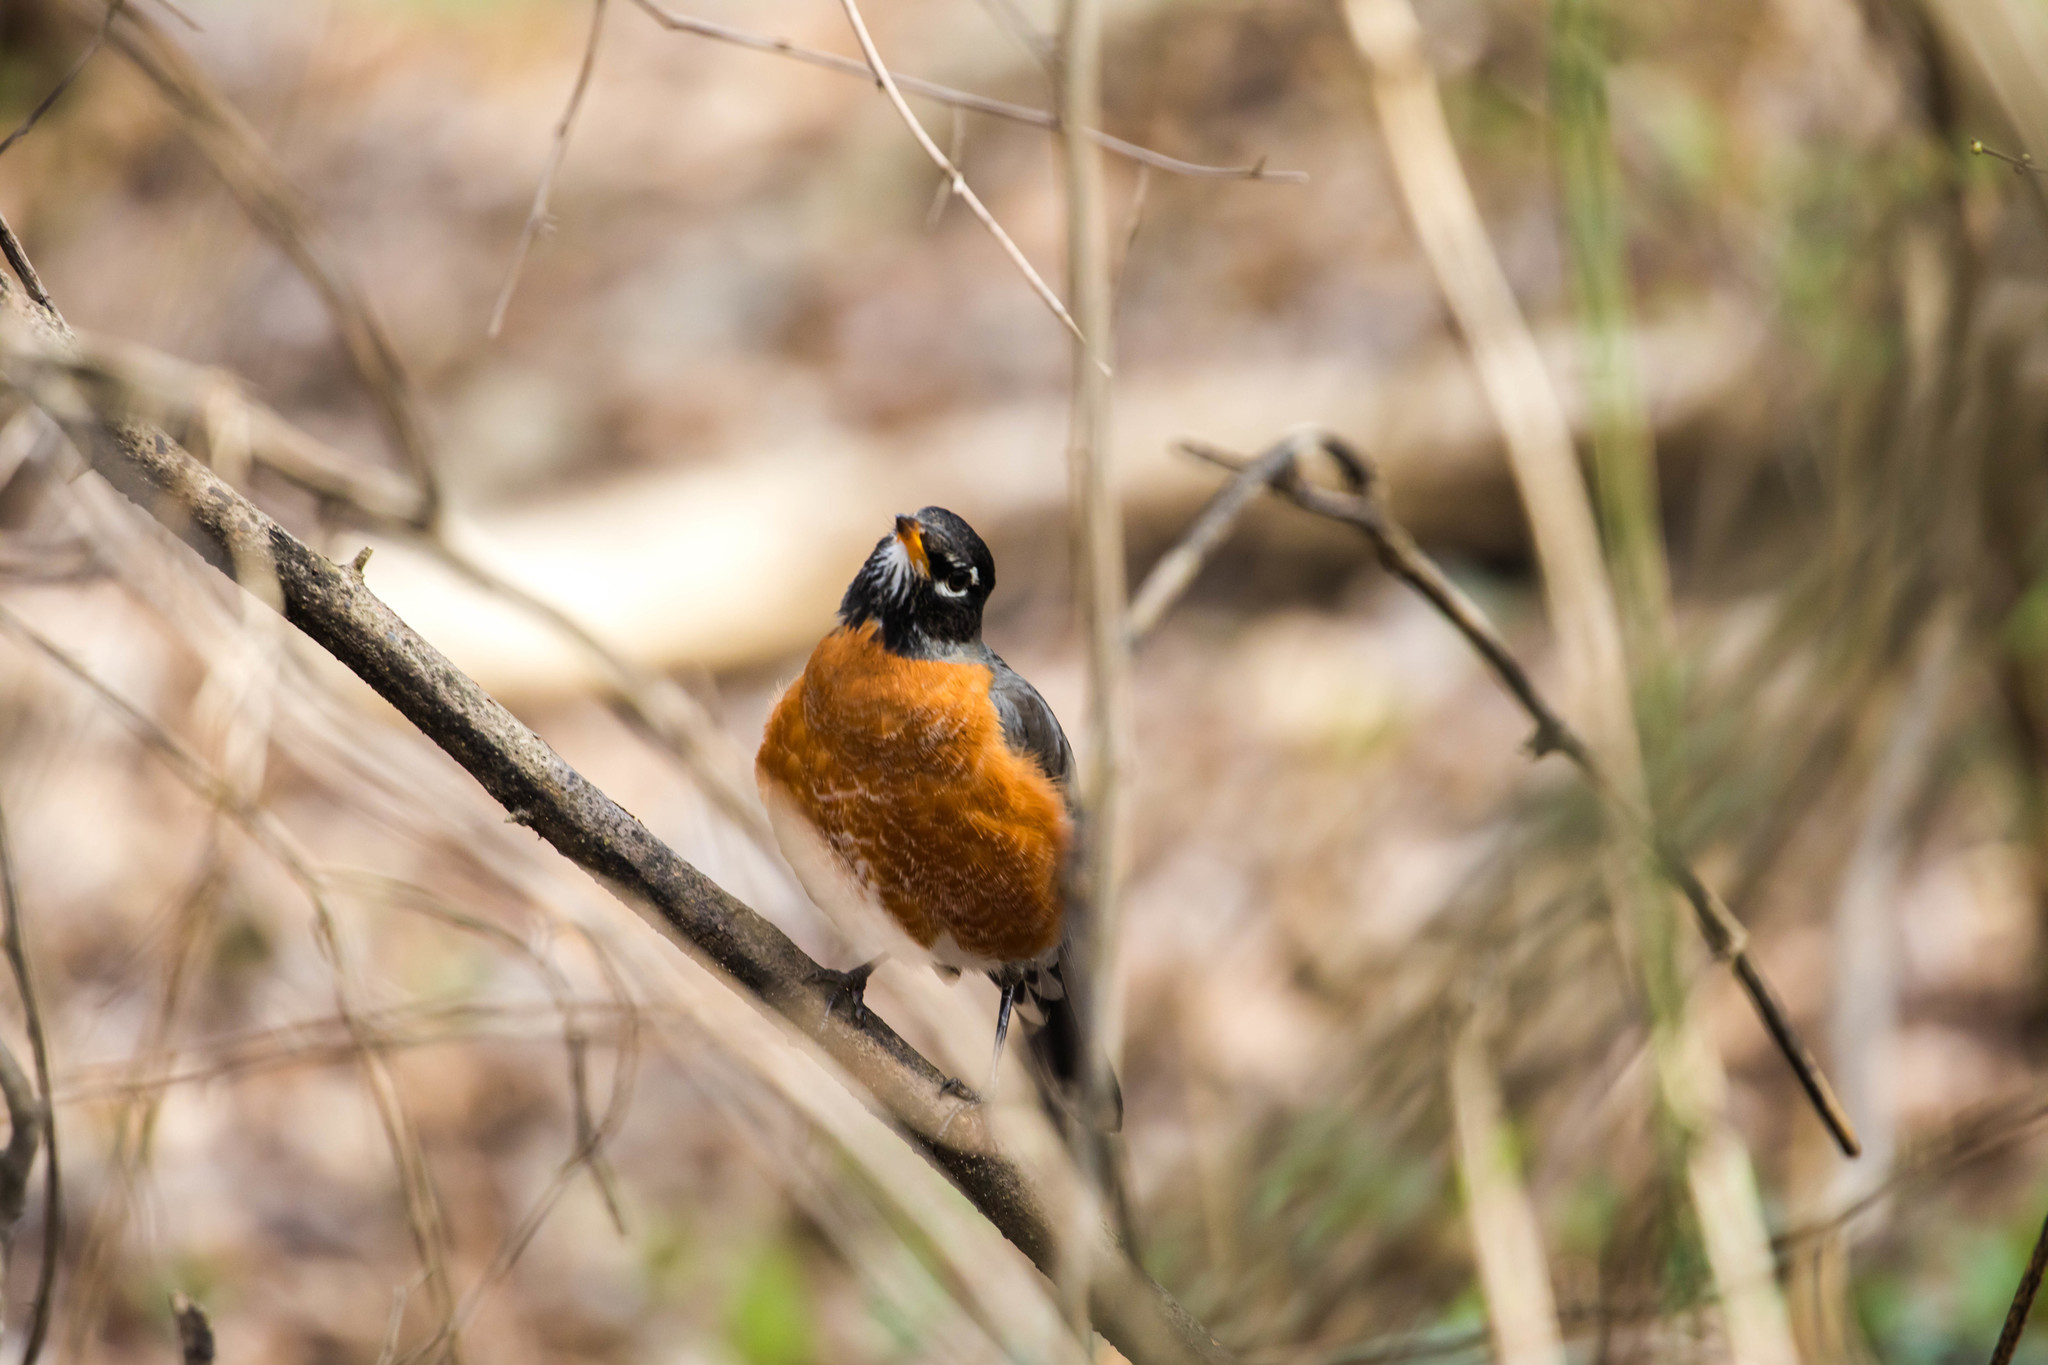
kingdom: Animalia
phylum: Chordata
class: Aves
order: Passeriformes
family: Turdidae
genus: Turdus
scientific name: Turdus migratorius
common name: American robin
